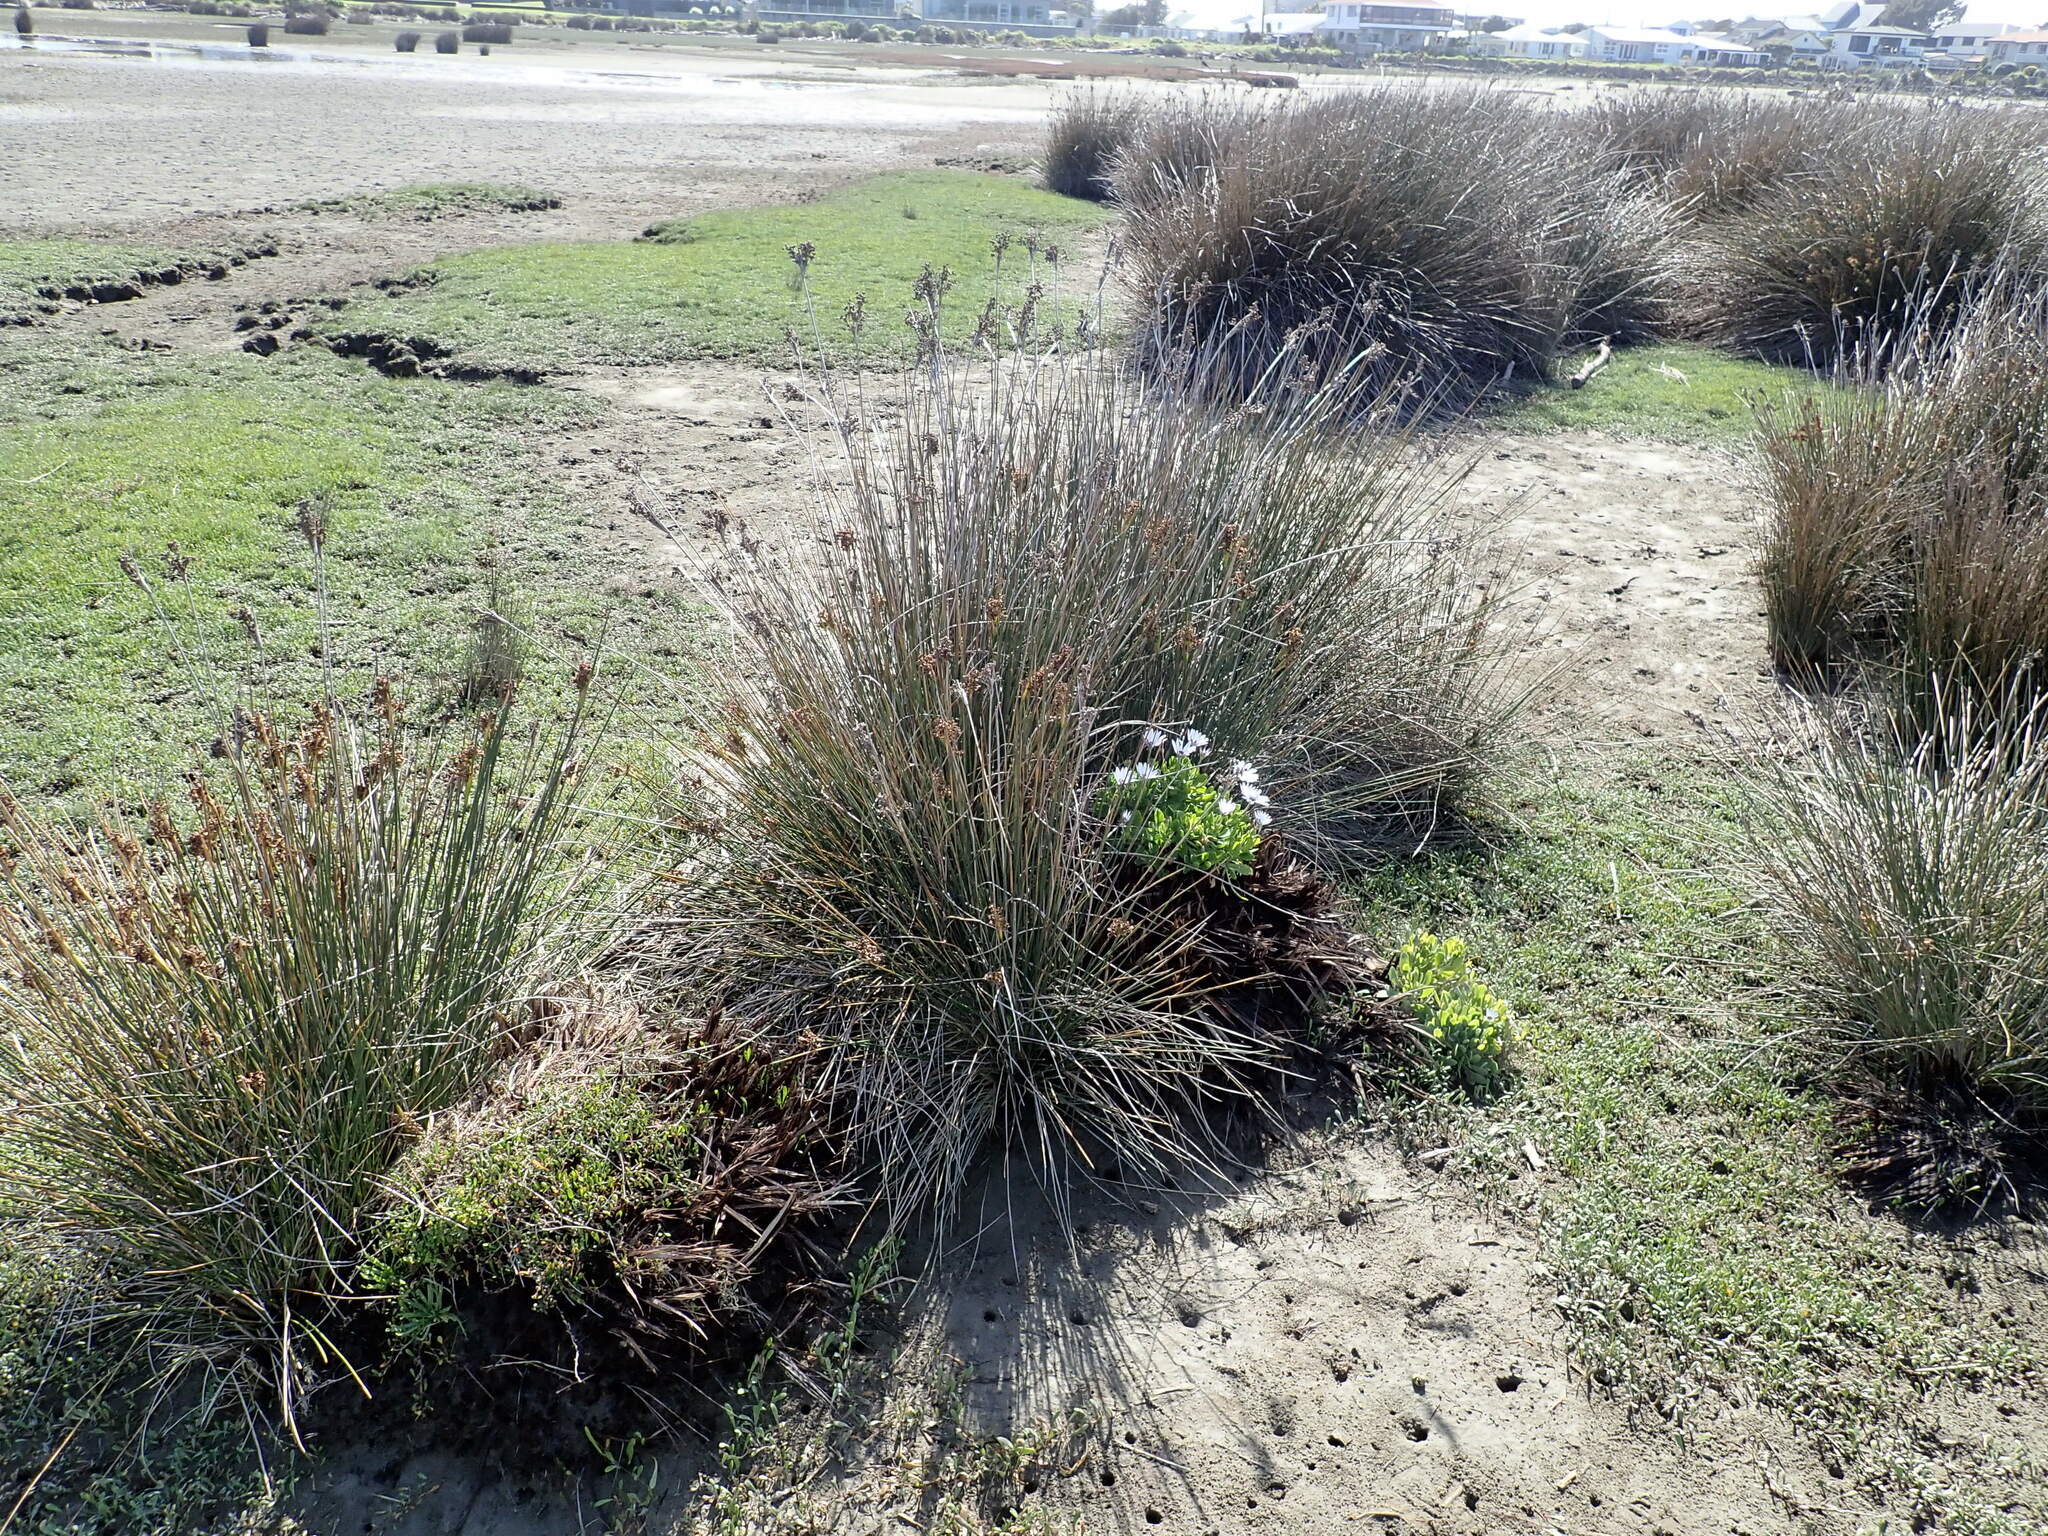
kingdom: Plantae
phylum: Tracheophyta
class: Magnoliopsida
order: Asterales
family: Asteraceae
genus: Dimorphotheca
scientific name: Dimorphotheca fruticosa
